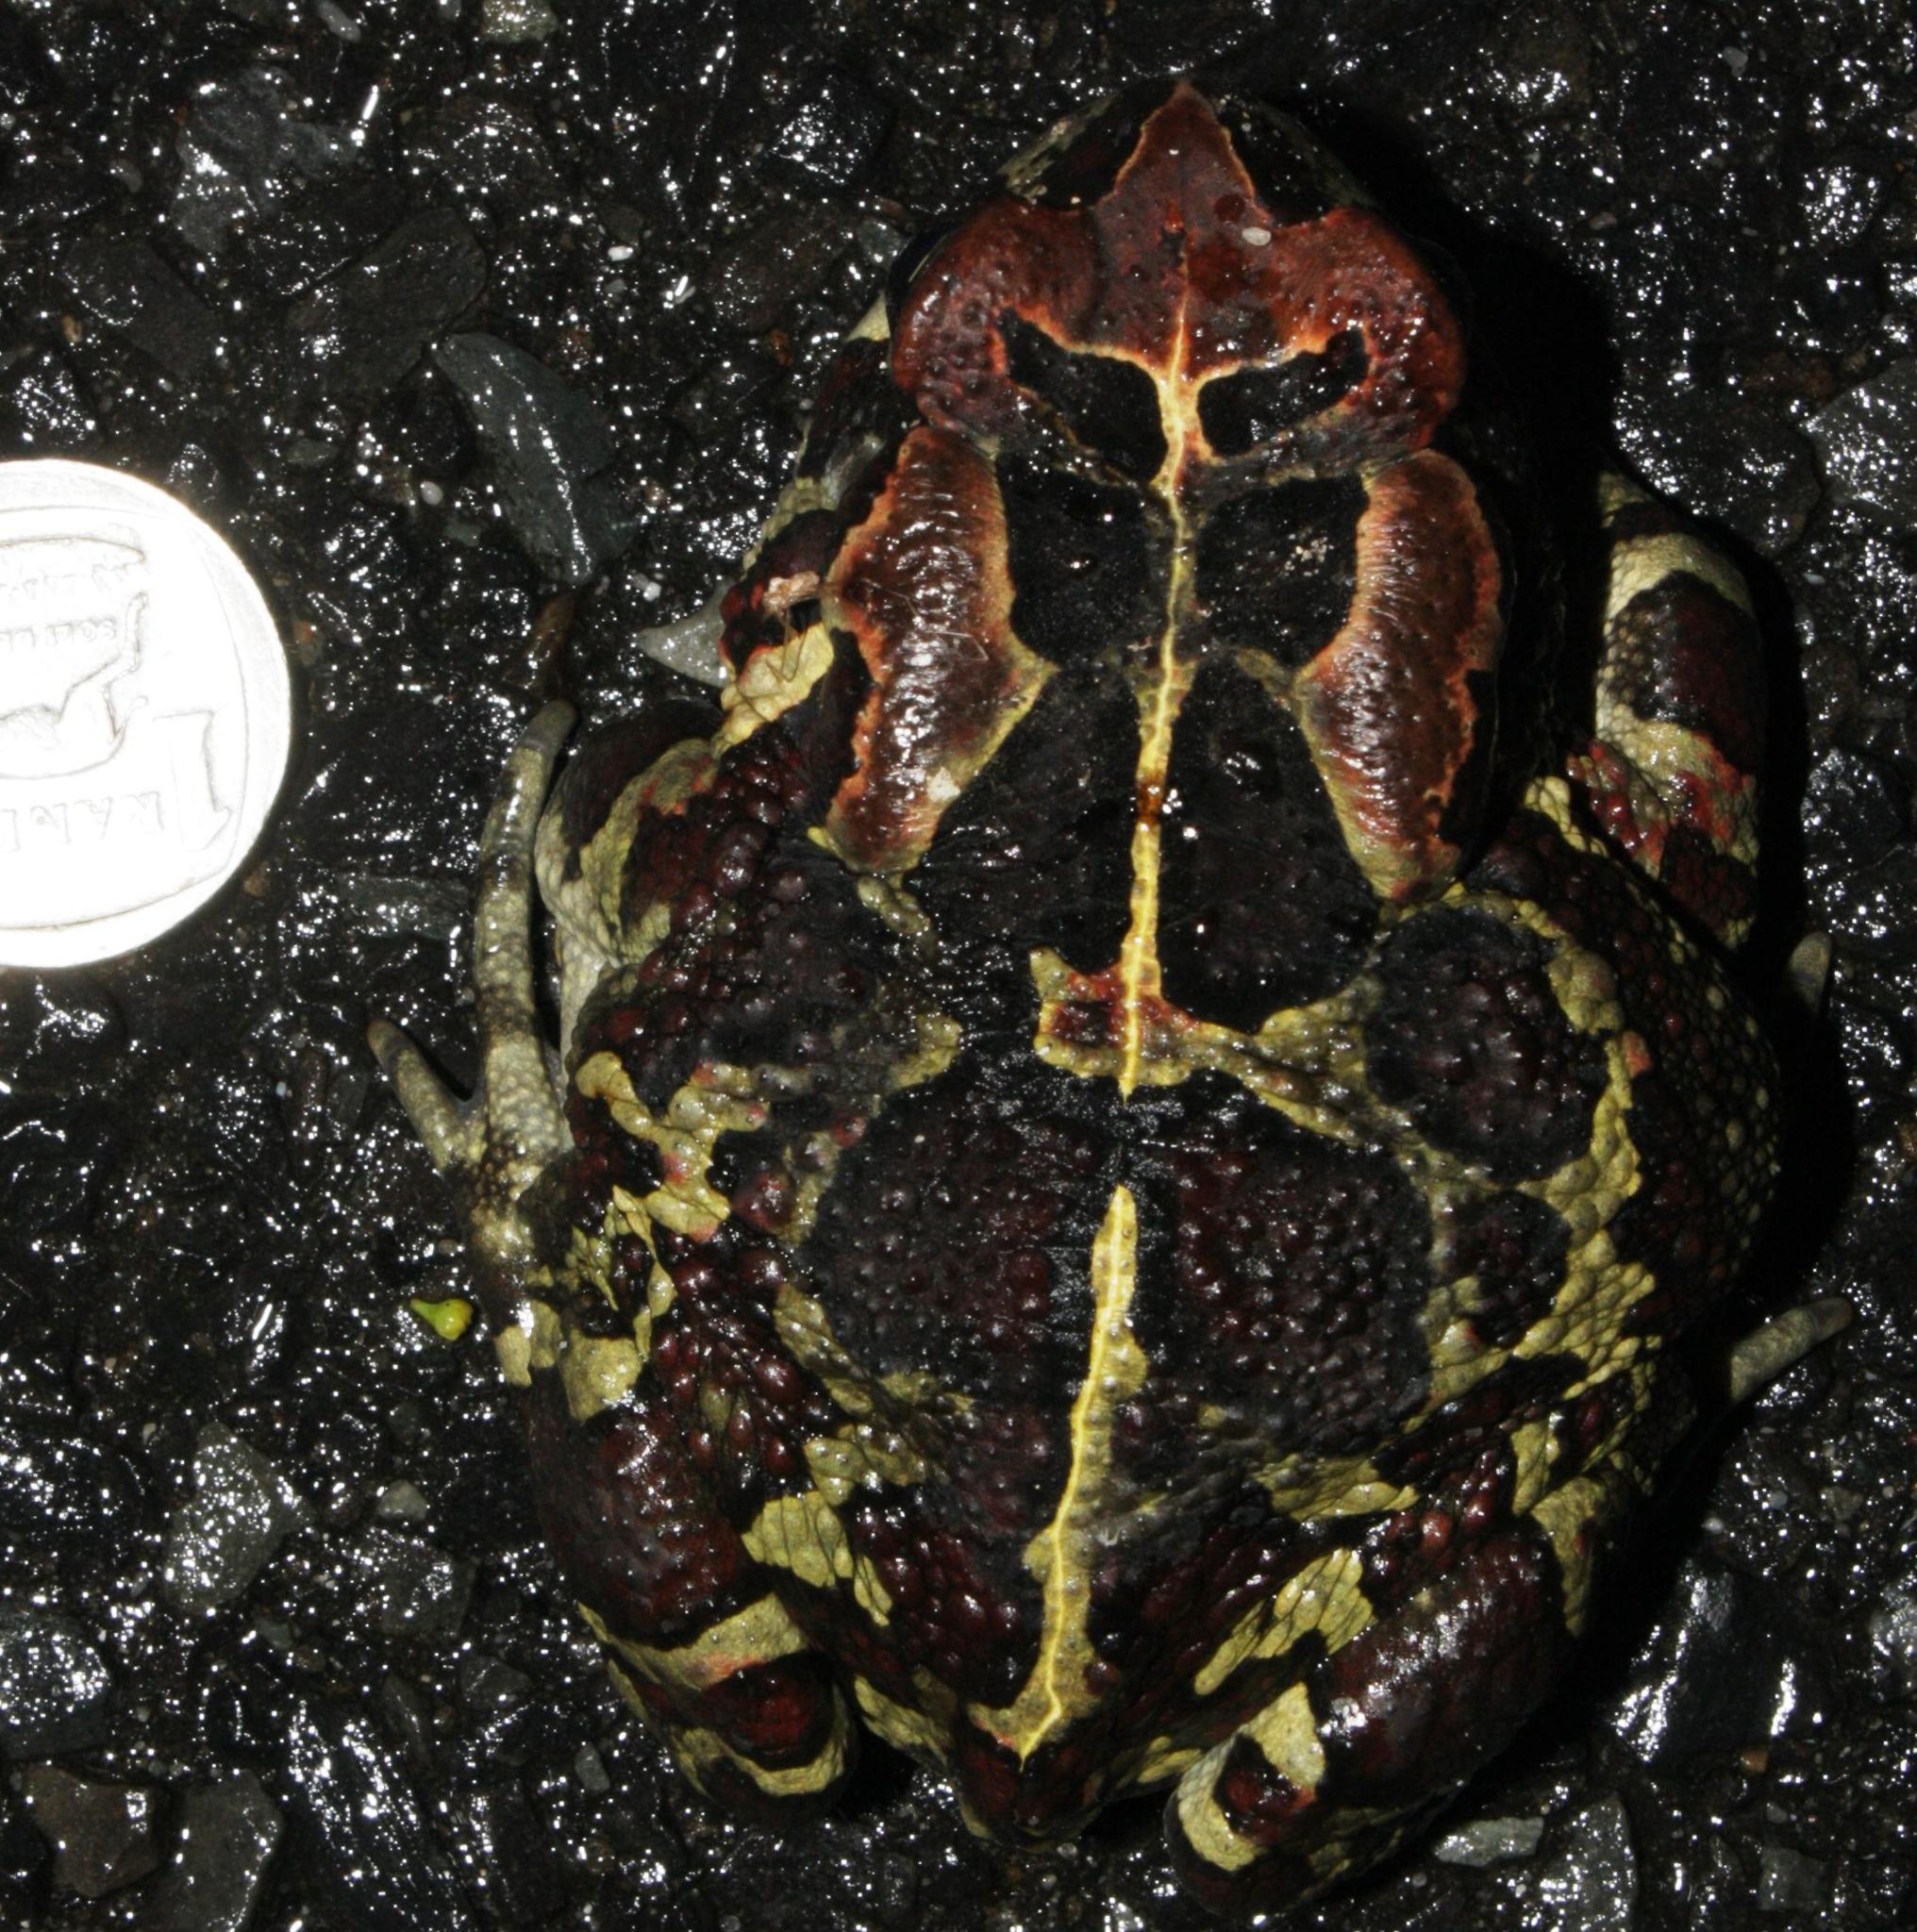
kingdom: Animalia
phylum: Chordata
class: Amphibia
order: Anura
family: Bufonidae
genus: Sclerophrys
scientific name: Sclerophrys pantherina
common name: Panther toad
